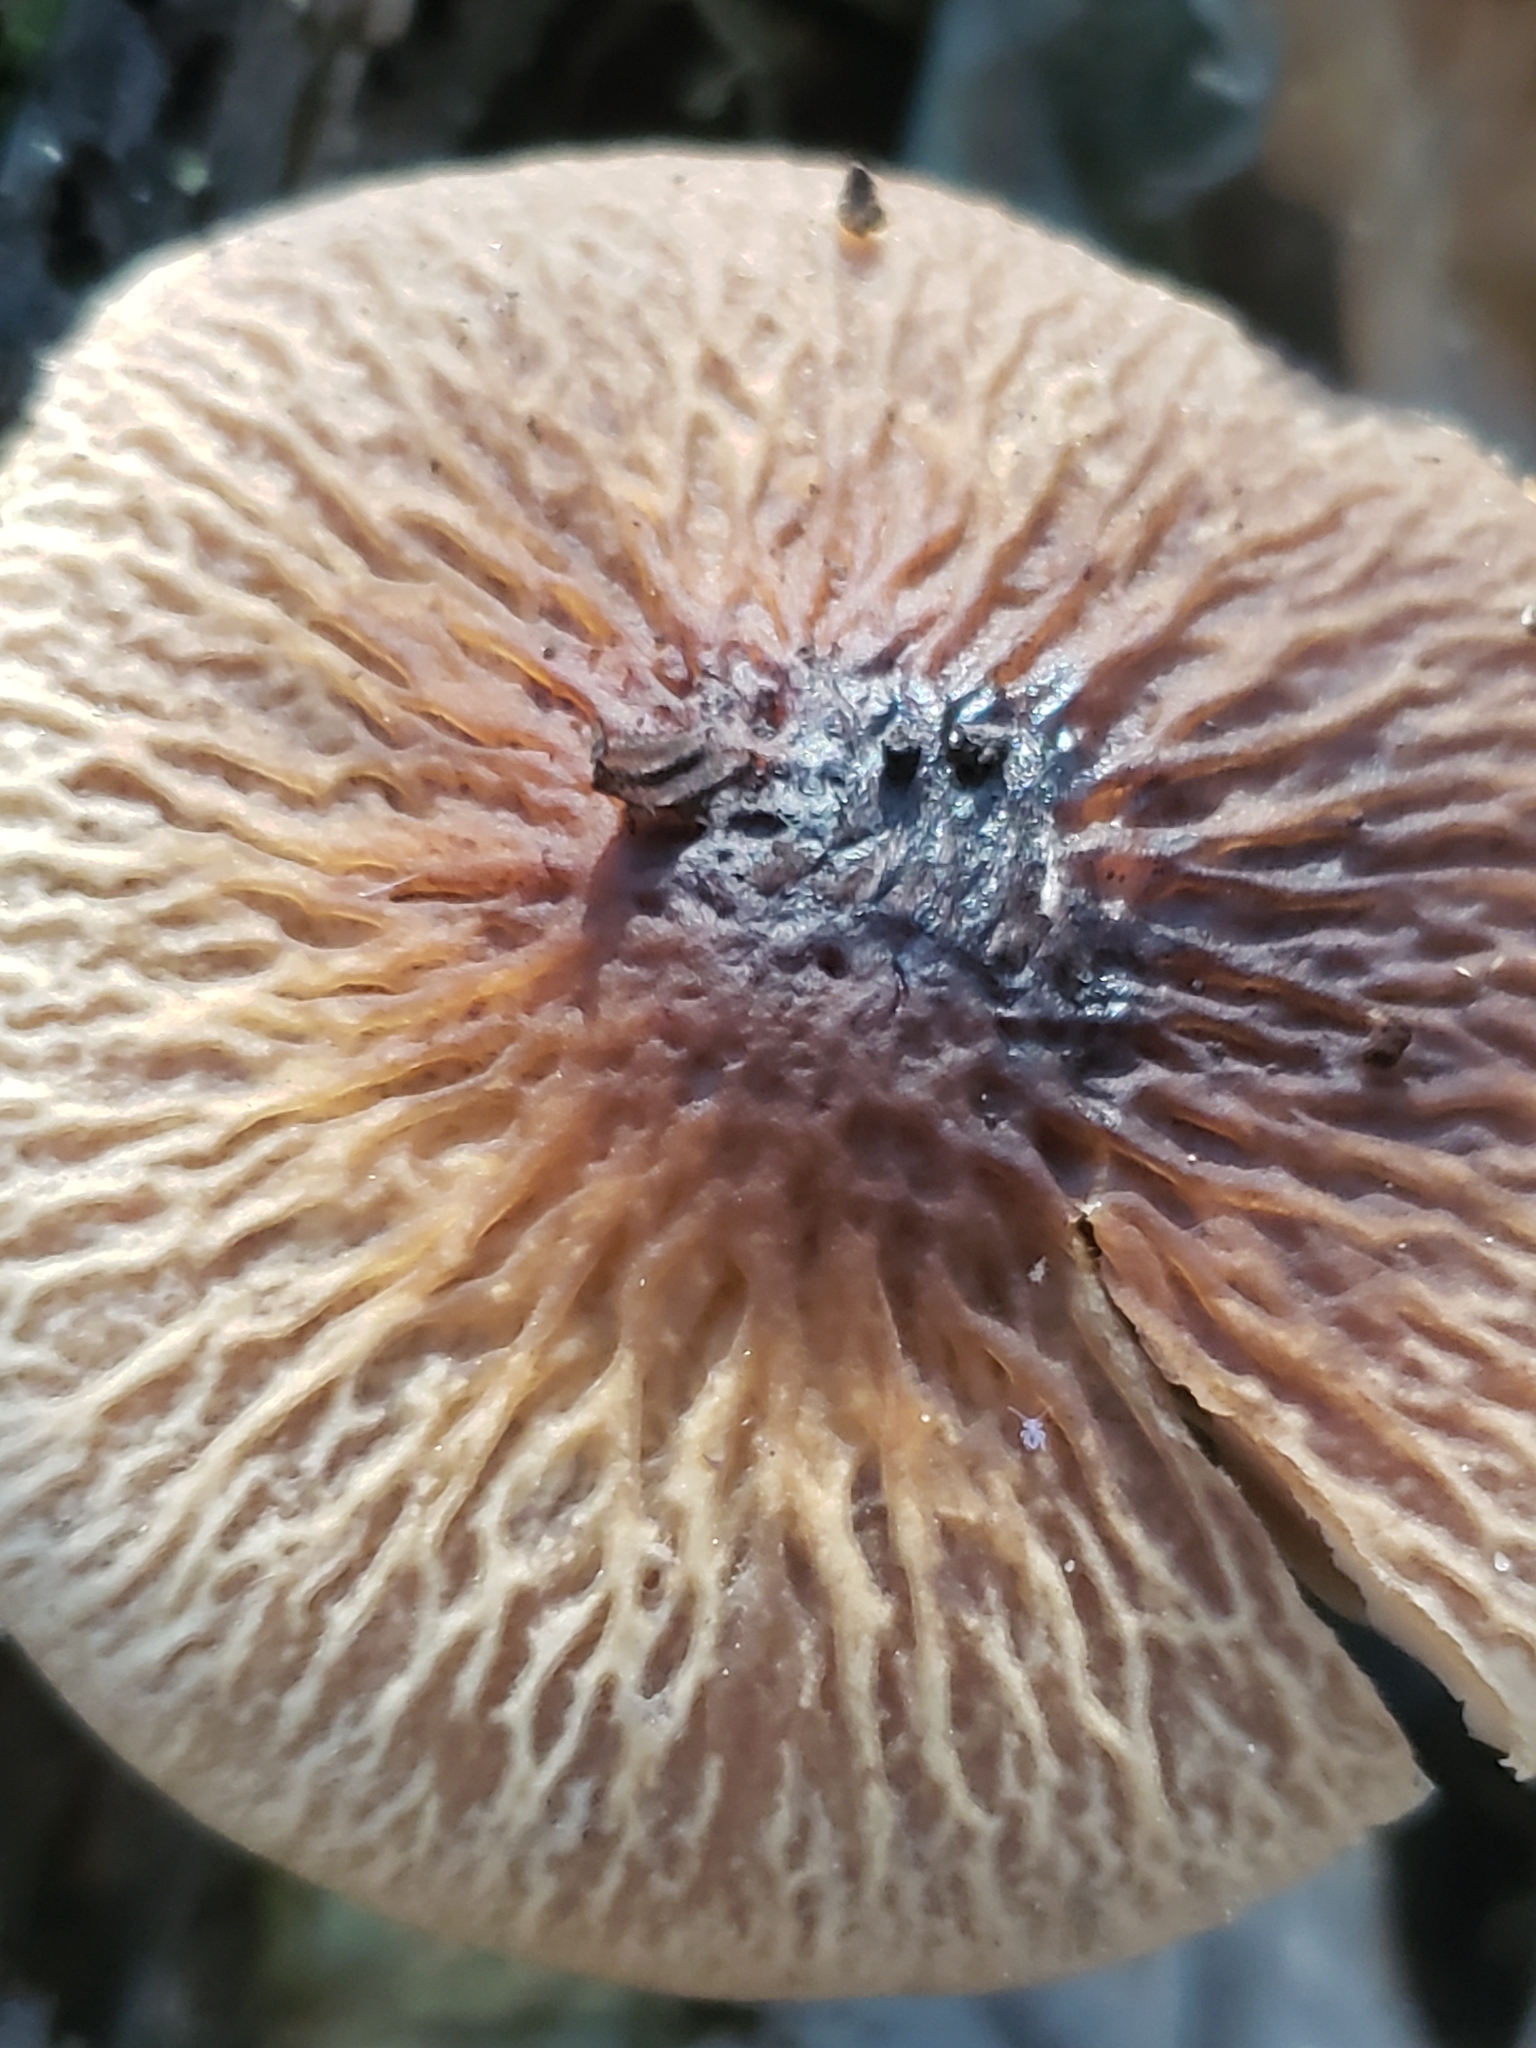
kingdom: Fungi
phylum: Basidiomycota
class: Agaricomycetes
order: Agaricales
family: Psathyrellaceae
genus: Typhrasa
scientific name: Typhrasa gossypina
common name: Wrinkled psathyrella
